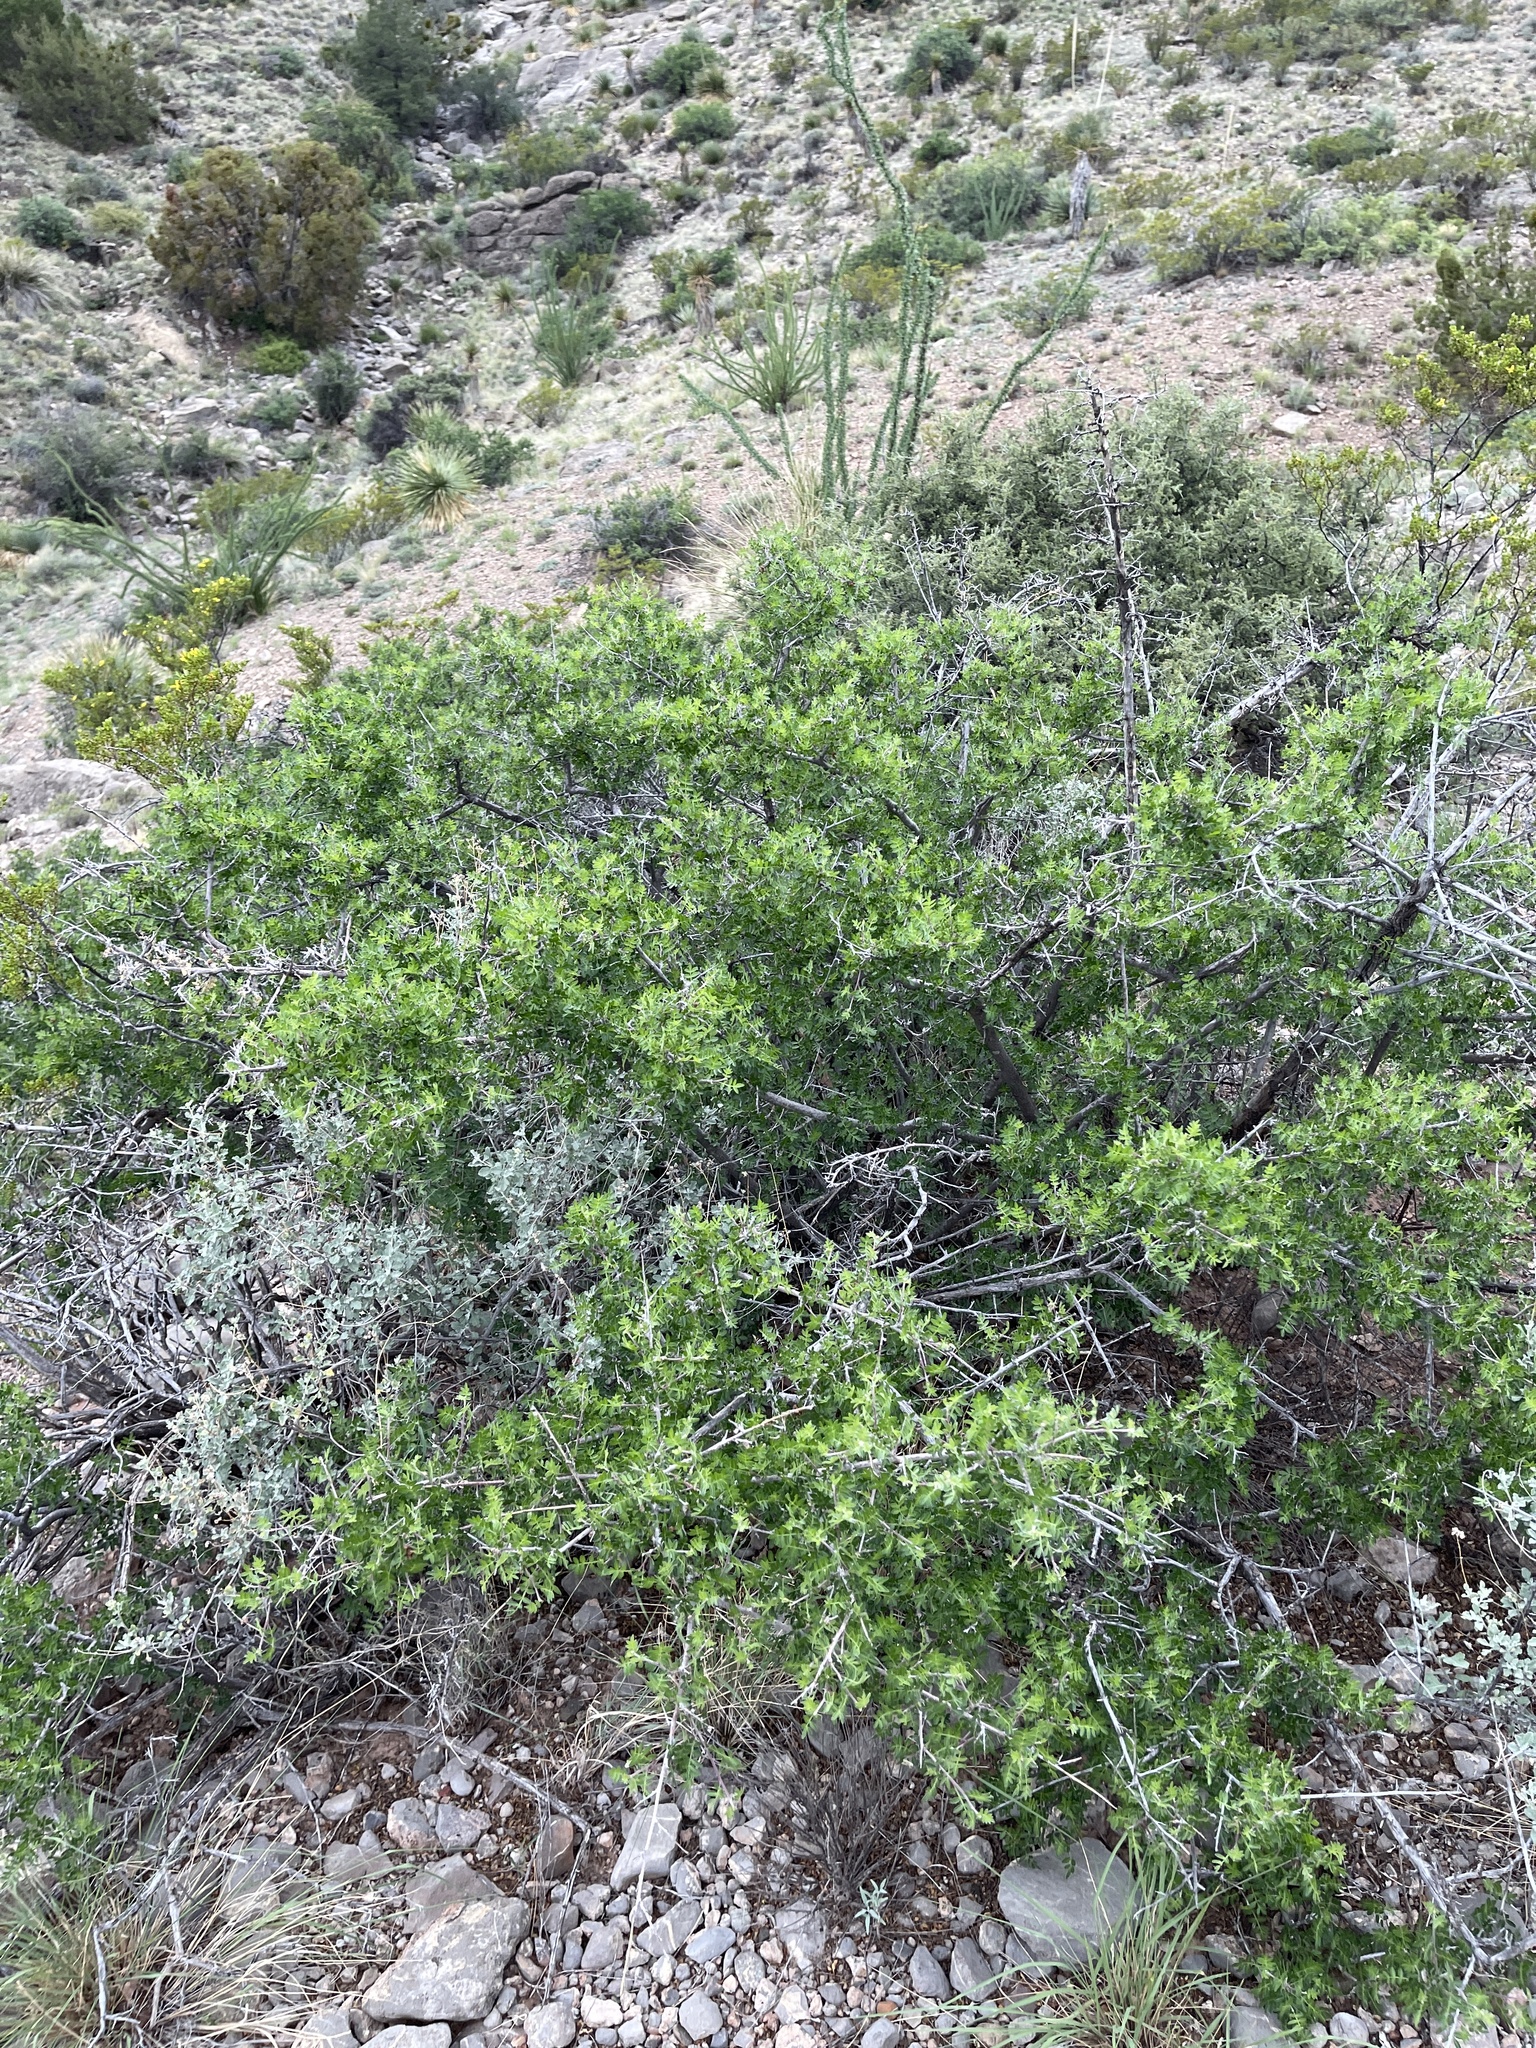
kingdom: Plantae
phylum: Tracheophyta
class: Magnoliopsida
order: Sapindales
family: Anacardiaceae
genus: Rhus
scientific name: Rhus microphylla
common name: Desert sumac
